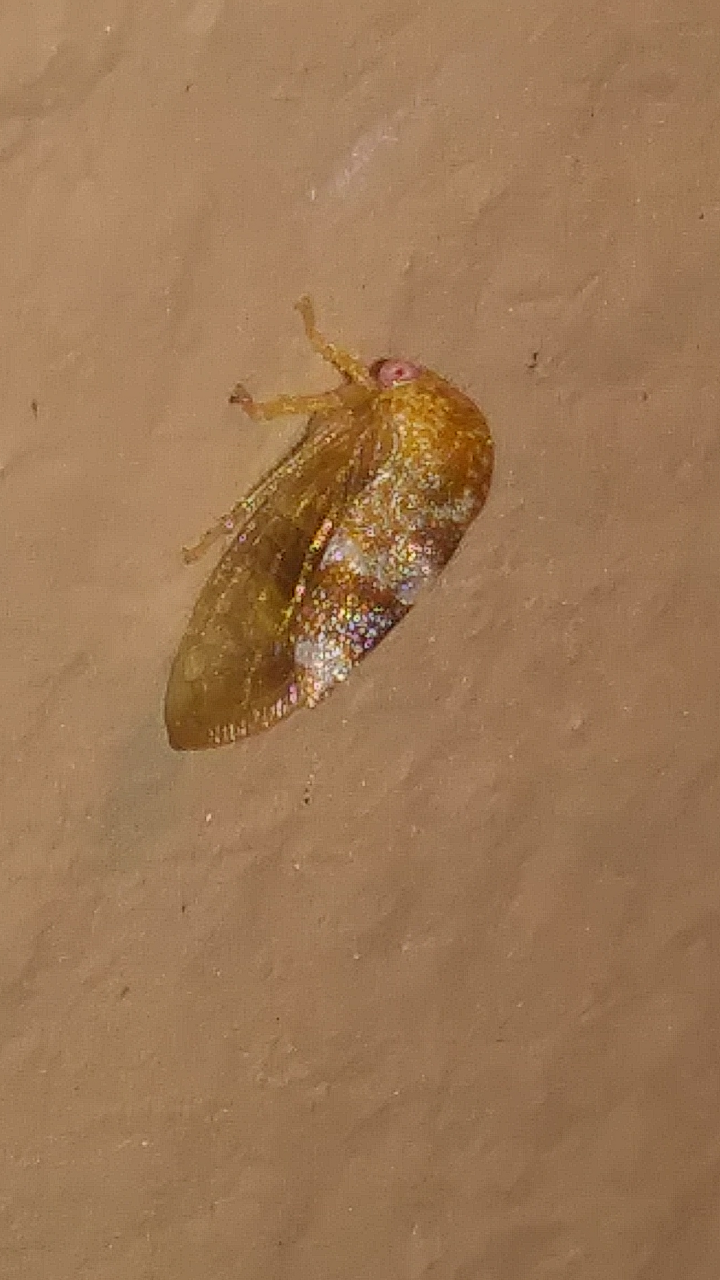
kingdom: Animalia
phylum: Arthropoda
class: Insecta
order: Hemiptera
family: Membracidae
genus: Cyrtolobus
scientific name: Cyrtolobus maculifrontis
